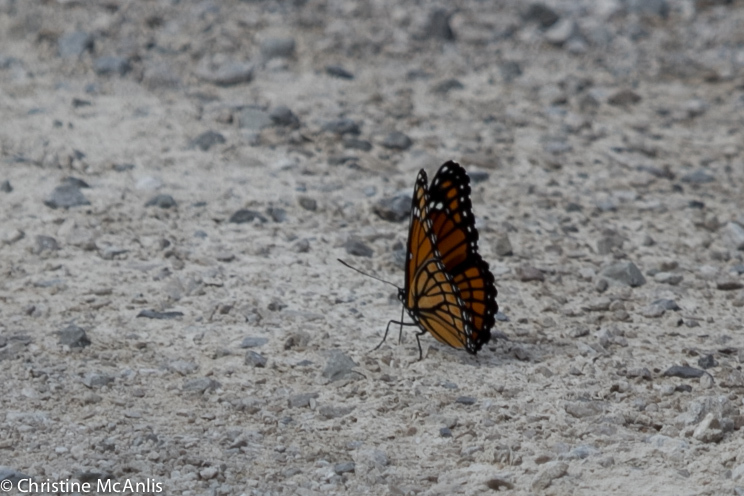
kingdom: Animalia
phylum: Arthropoda
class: Insecta
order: Lepidoptera
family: Nymphalidae
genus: Limenitis
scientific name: Limenitis archippus
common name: Viceroy
